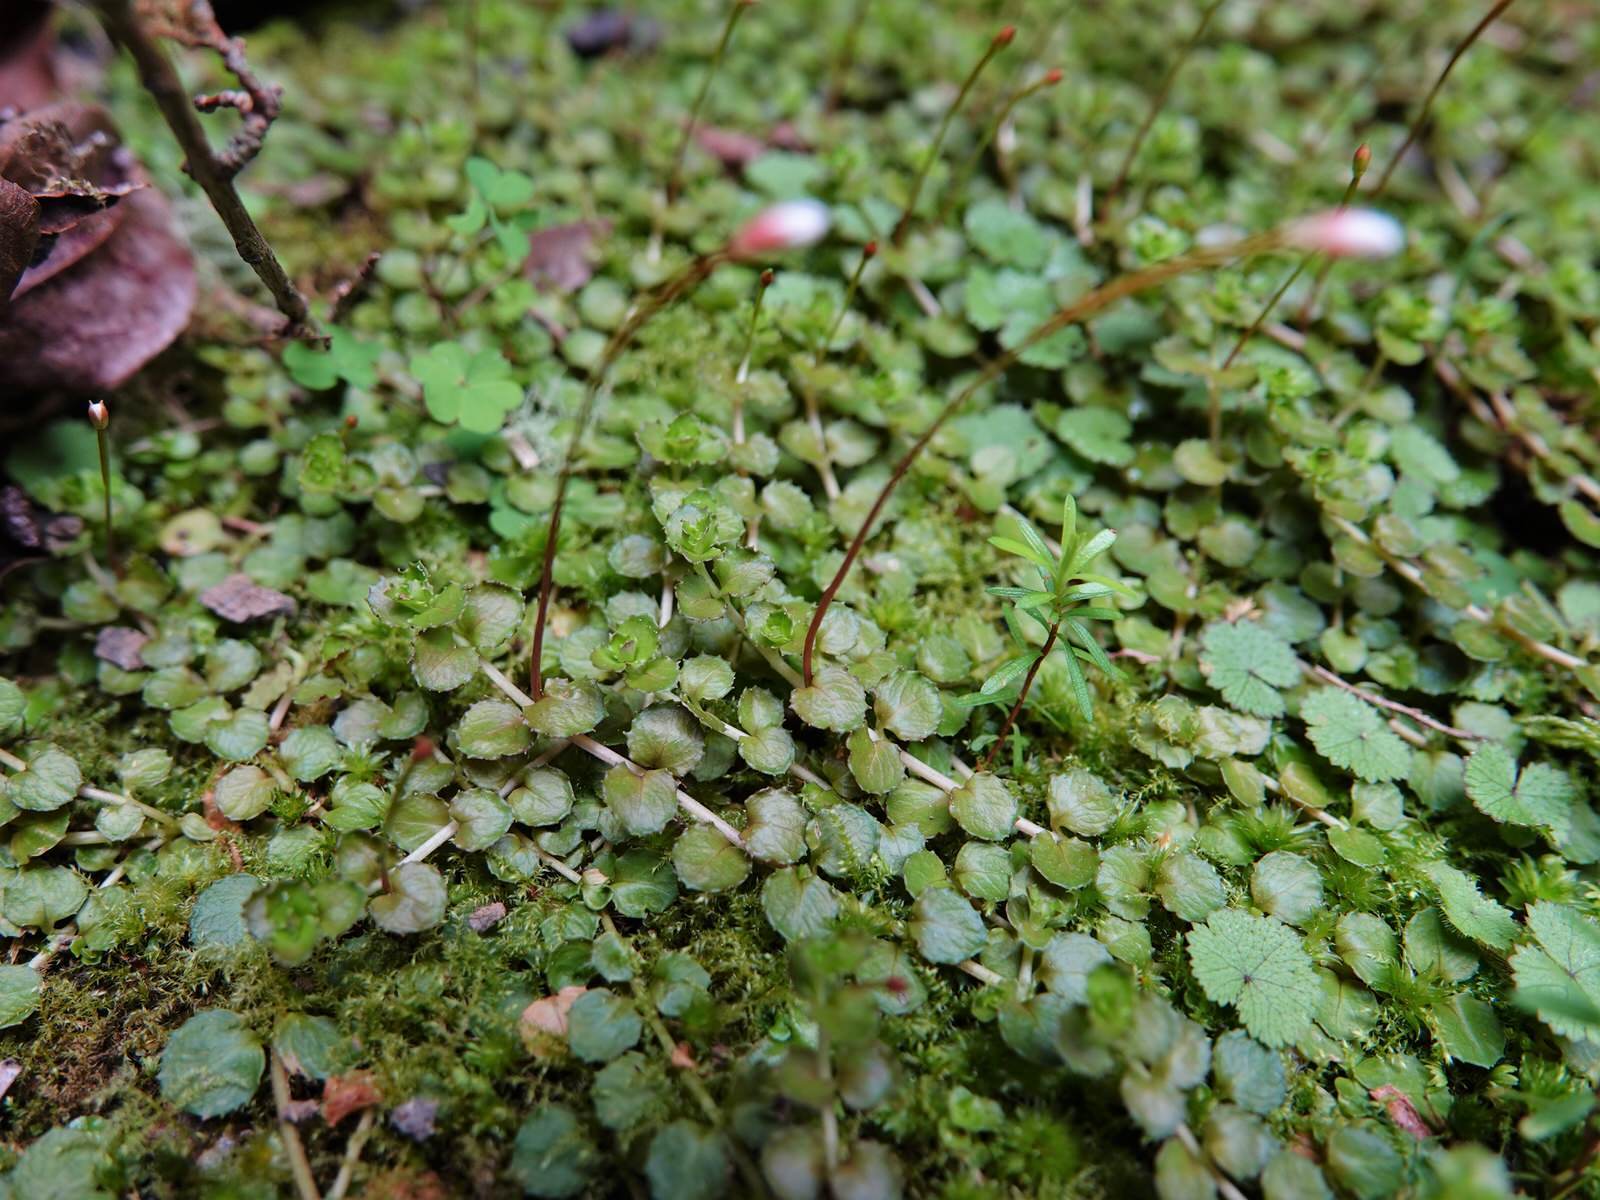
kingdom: Plantae
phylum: Tracheophyta
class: Magnoliopsida
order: Myrtales
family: Onagraceae
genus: Epilobium
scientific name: Epilobium pedunculare
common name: Rockery willowherb
